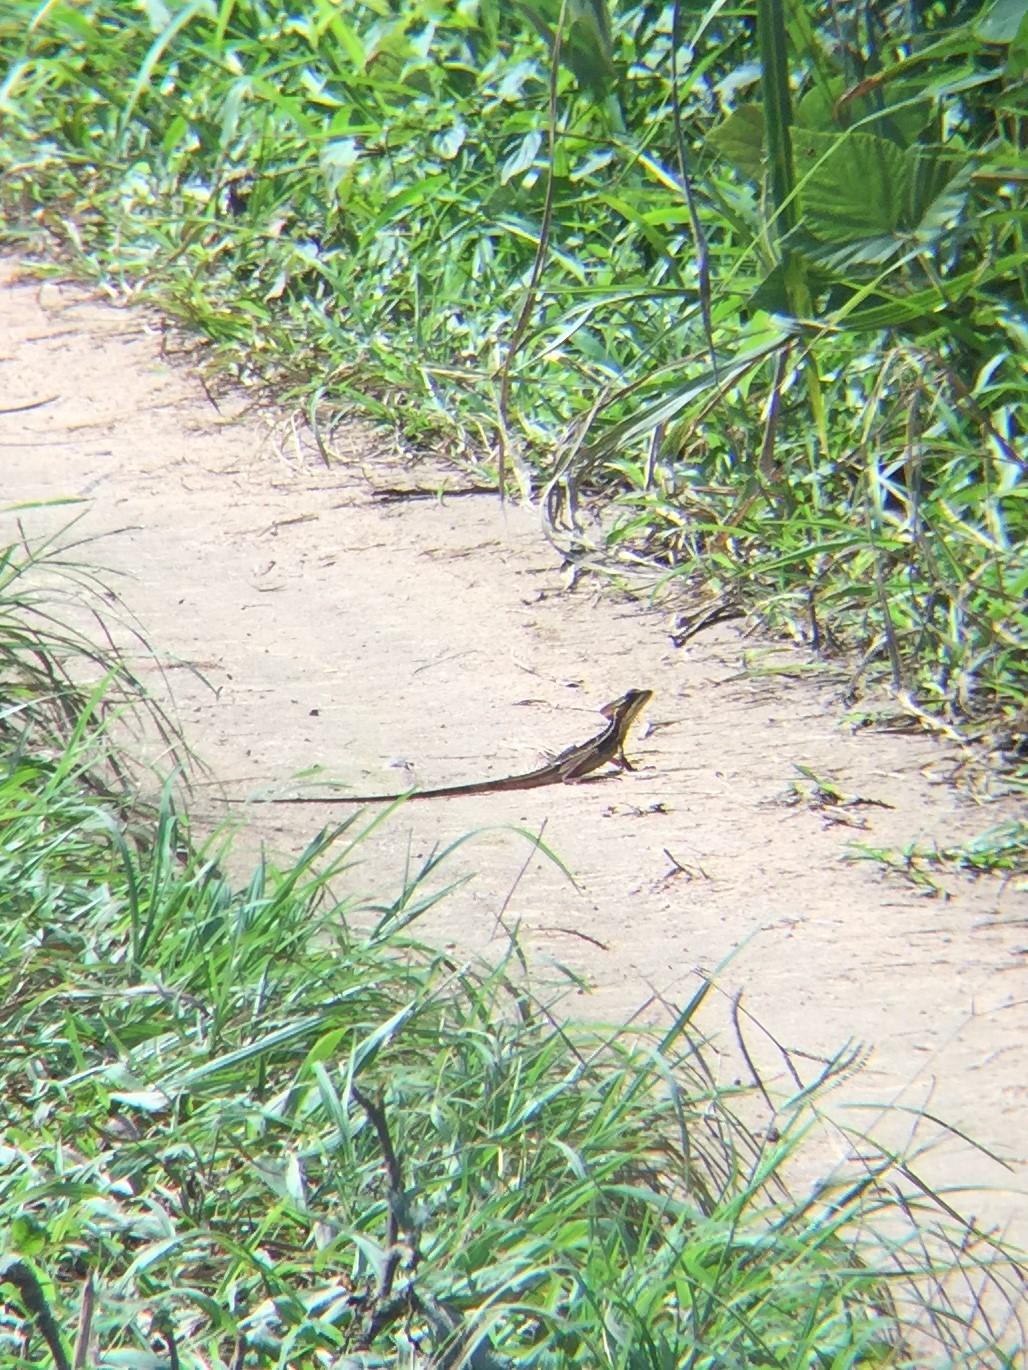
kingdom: Animalia
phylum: Chordata
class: Squamata
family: Corytophanidae
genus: Basiliscus
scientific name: Basiliscus vittatus
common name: Brown basilisk
